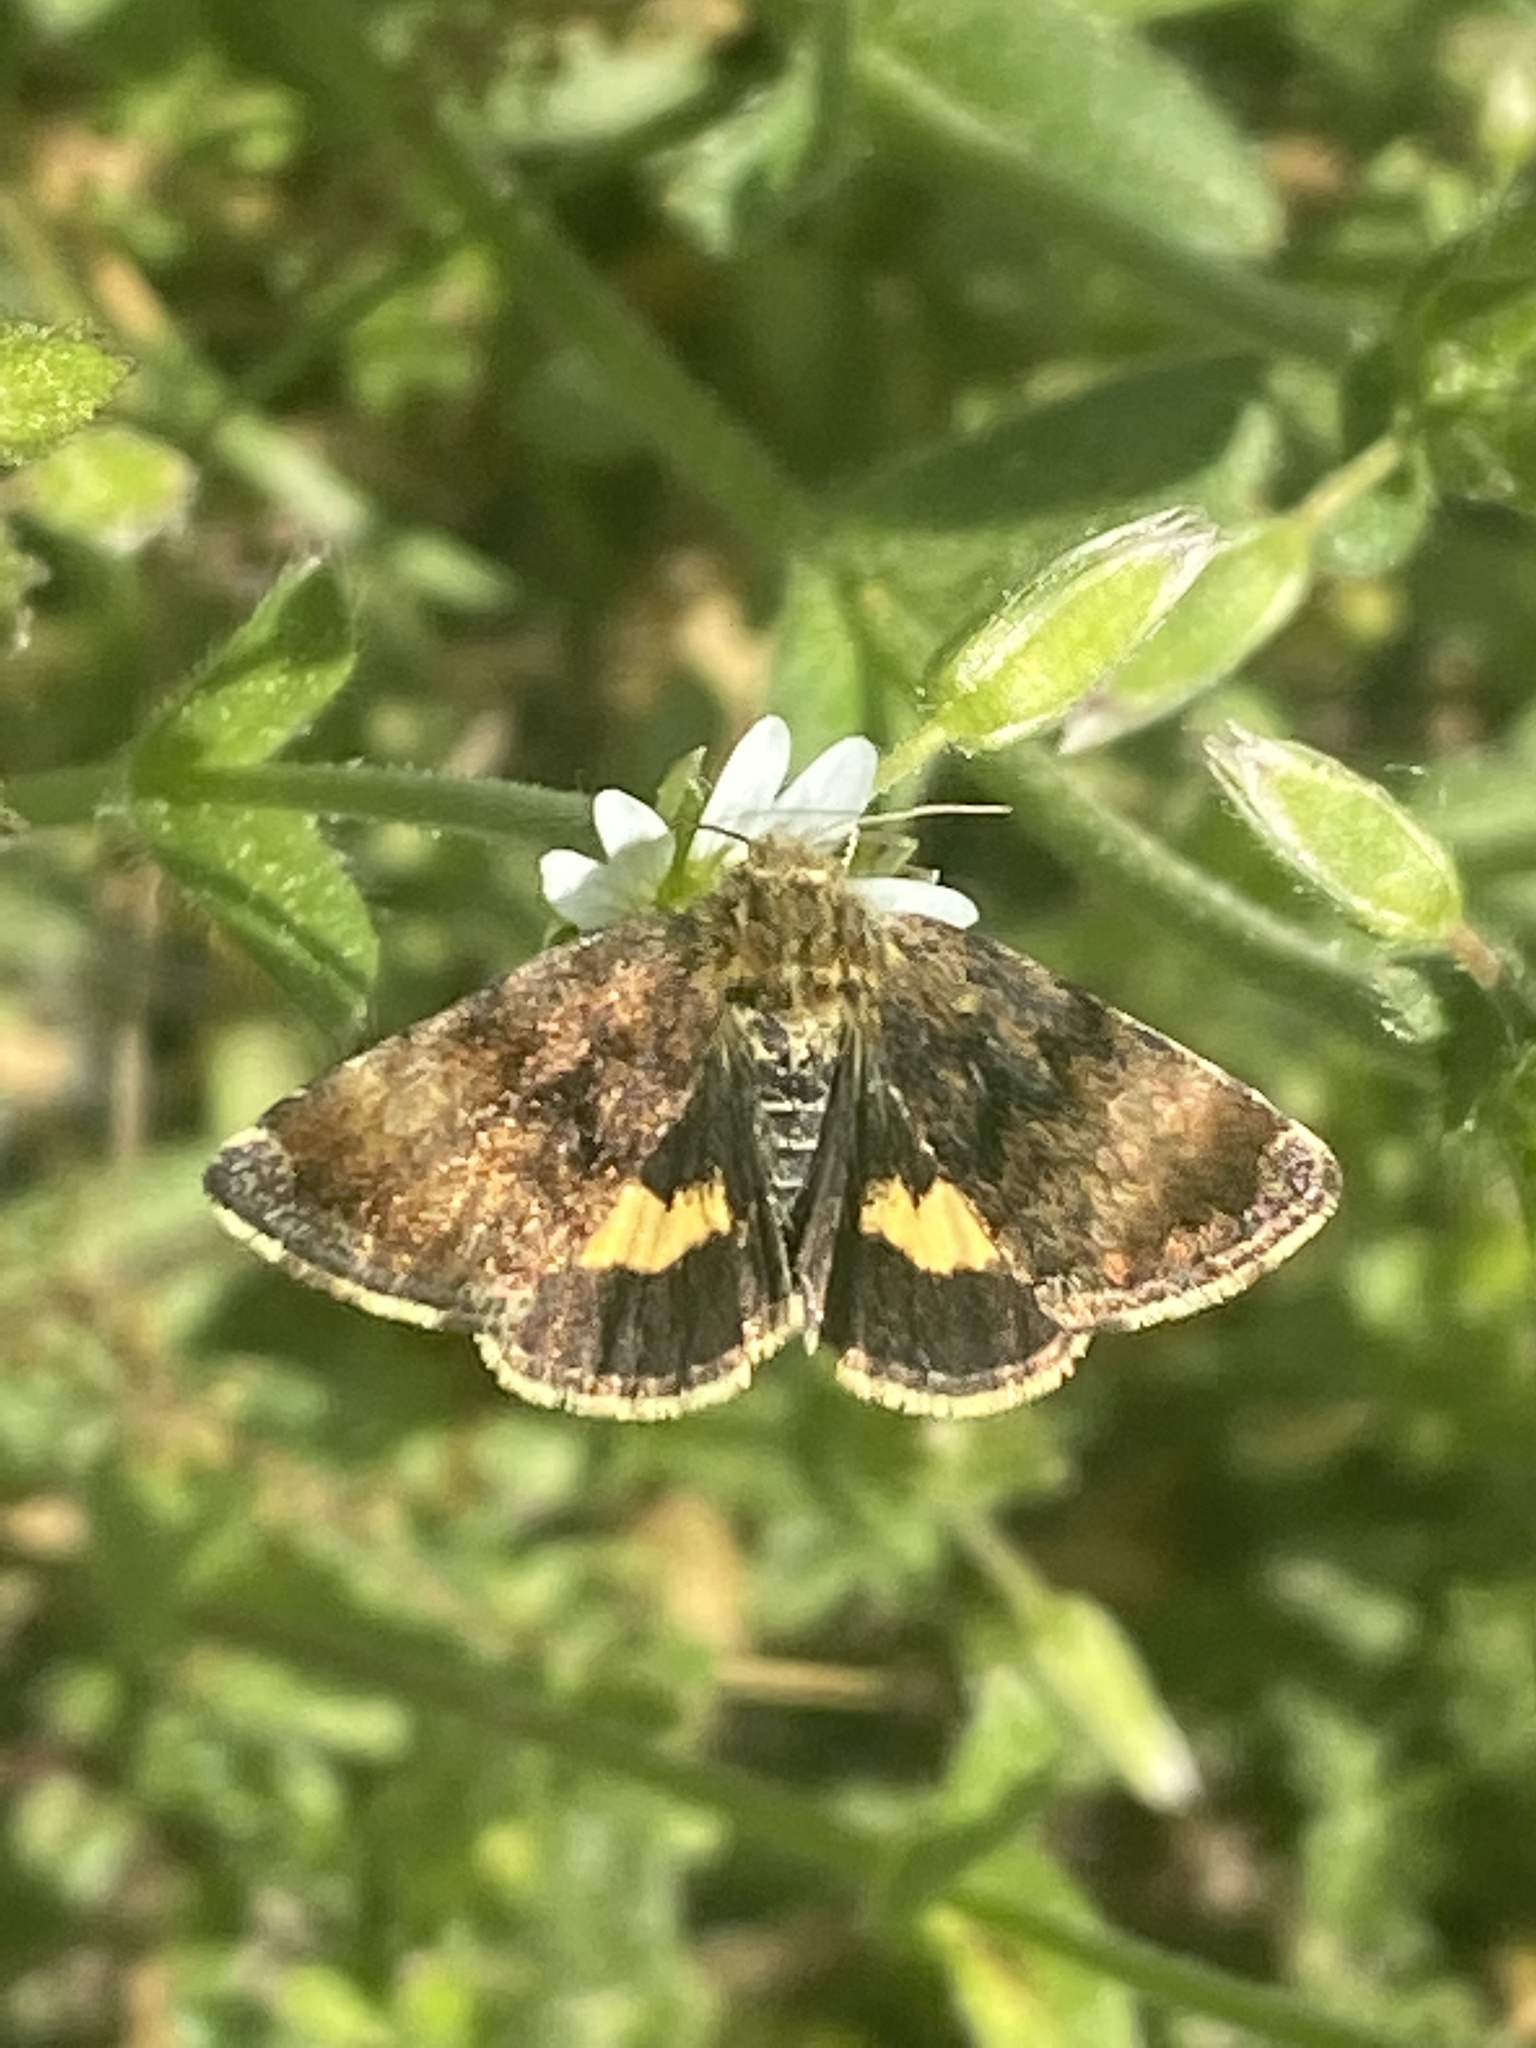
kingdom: Animalia
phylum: Arthropoda
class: Insecta
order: Lepidoptera
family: Noctuidae
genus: Panemeria
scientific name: Panemeria tenebrata
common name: Small yellow underwing
